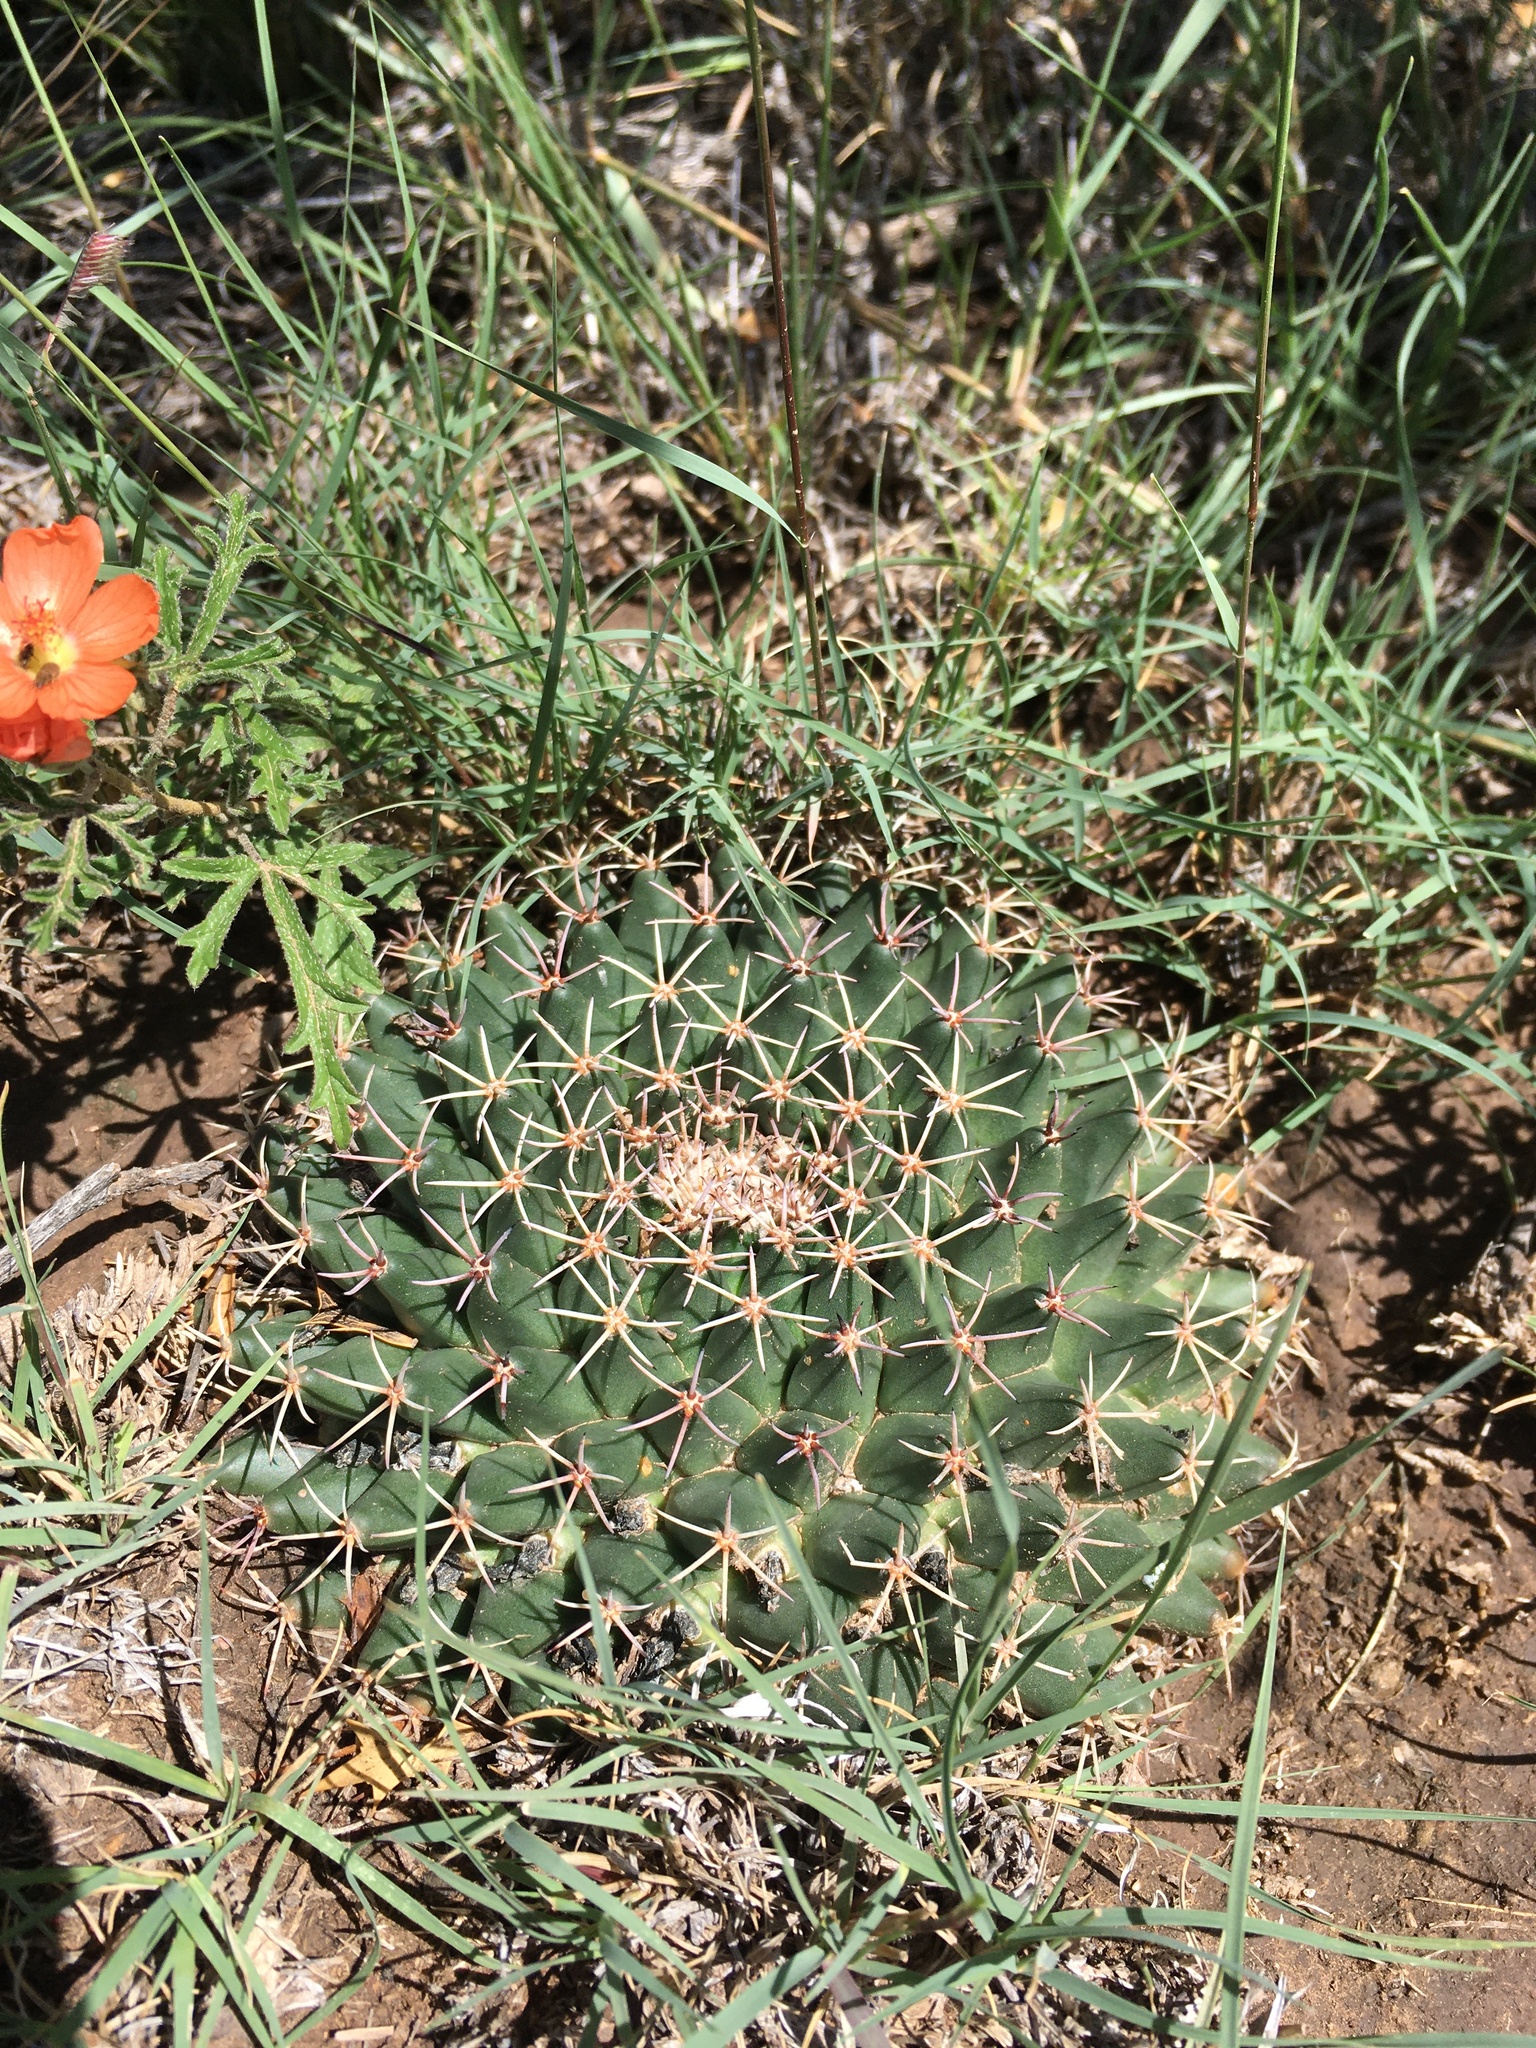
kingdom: Plantae
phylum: Tracheophyta
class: Magnoliopsida
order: Caryophyllales
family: Cactaceae
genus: Mammillaria
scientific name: Mammillaria heyderi
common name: Little nipple cactus
